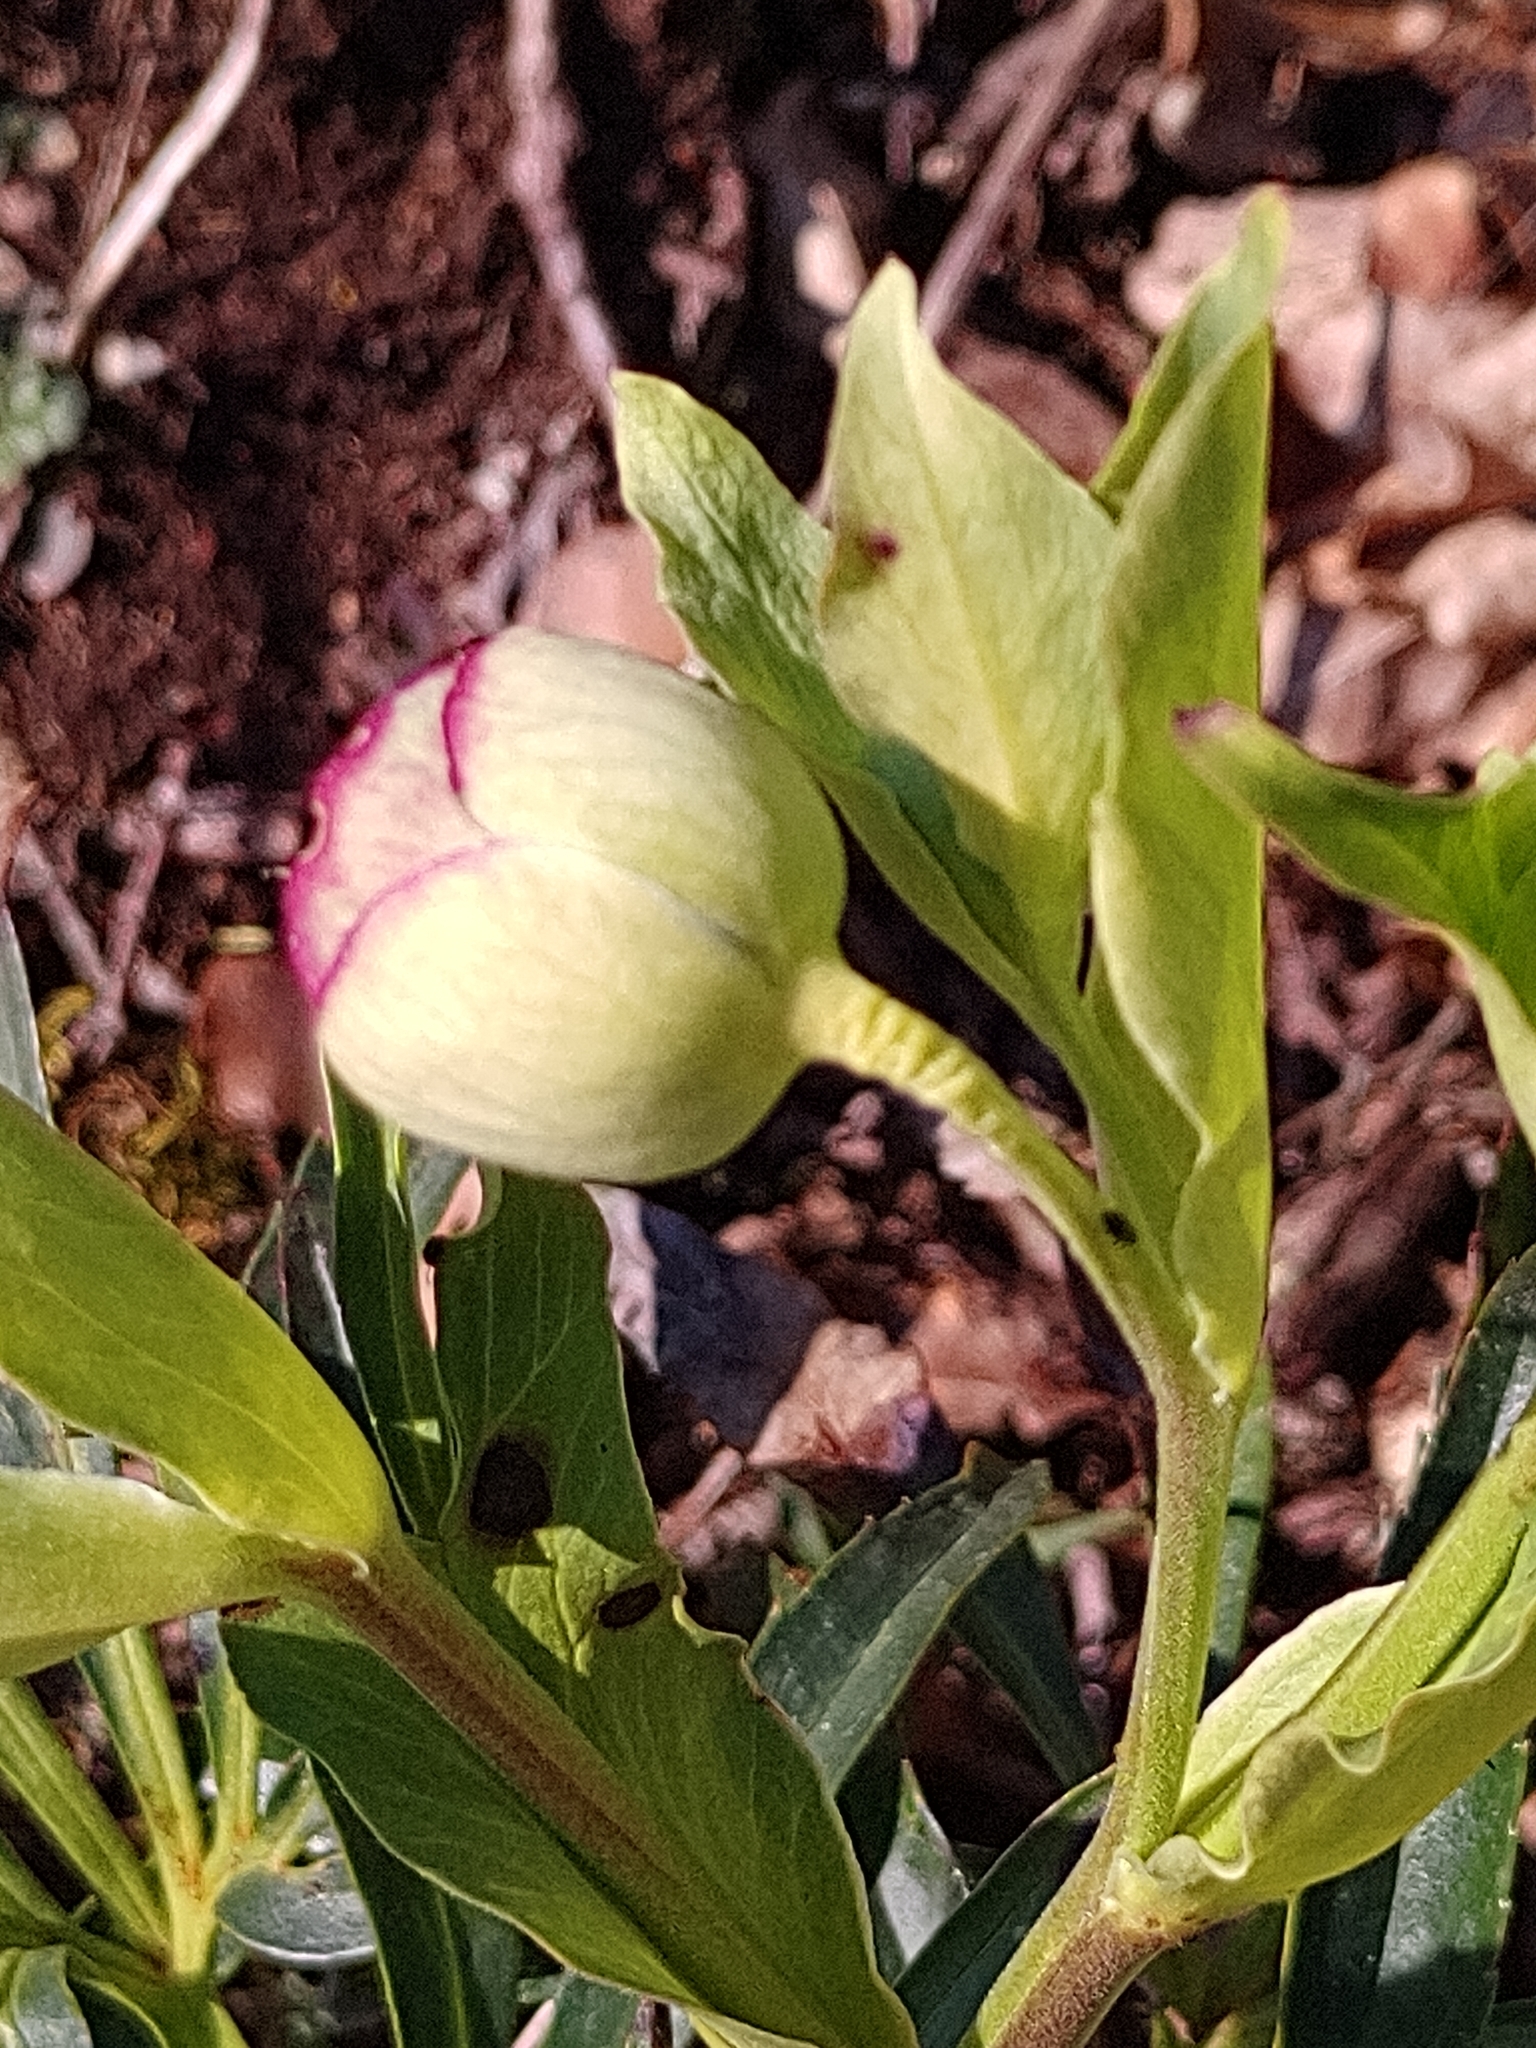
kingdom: Plantae
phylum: Tracheophyta
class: Magnoliopsida
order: Ranunculales
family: Ranunculaceae
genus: Helleborus
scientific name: Helleborus foetidus
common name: Stinking hellebore
